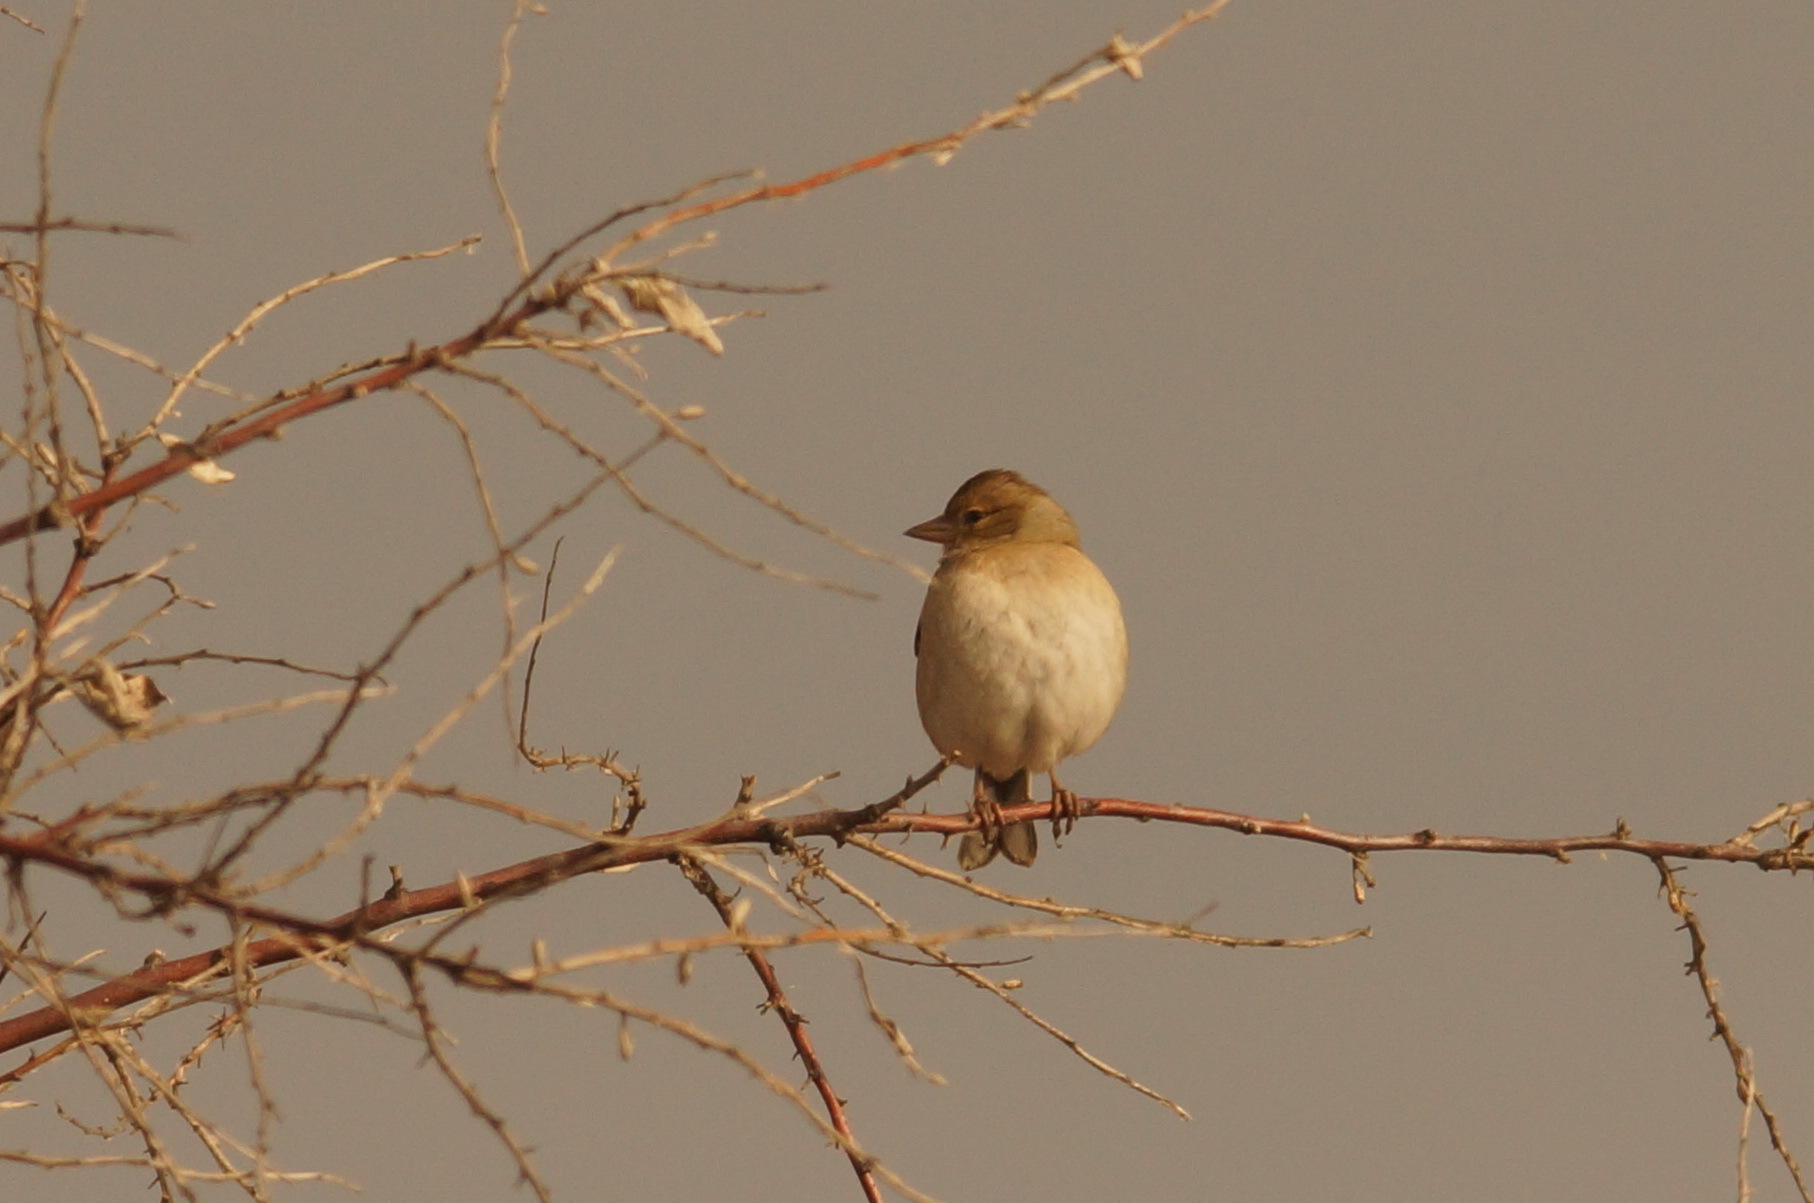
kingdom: Animalia
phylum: Chordata
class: Aves
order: Passeriformes
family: Fringillidae
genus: Fringilla
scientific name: Fringilla coelebs
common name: Common chaffinch
